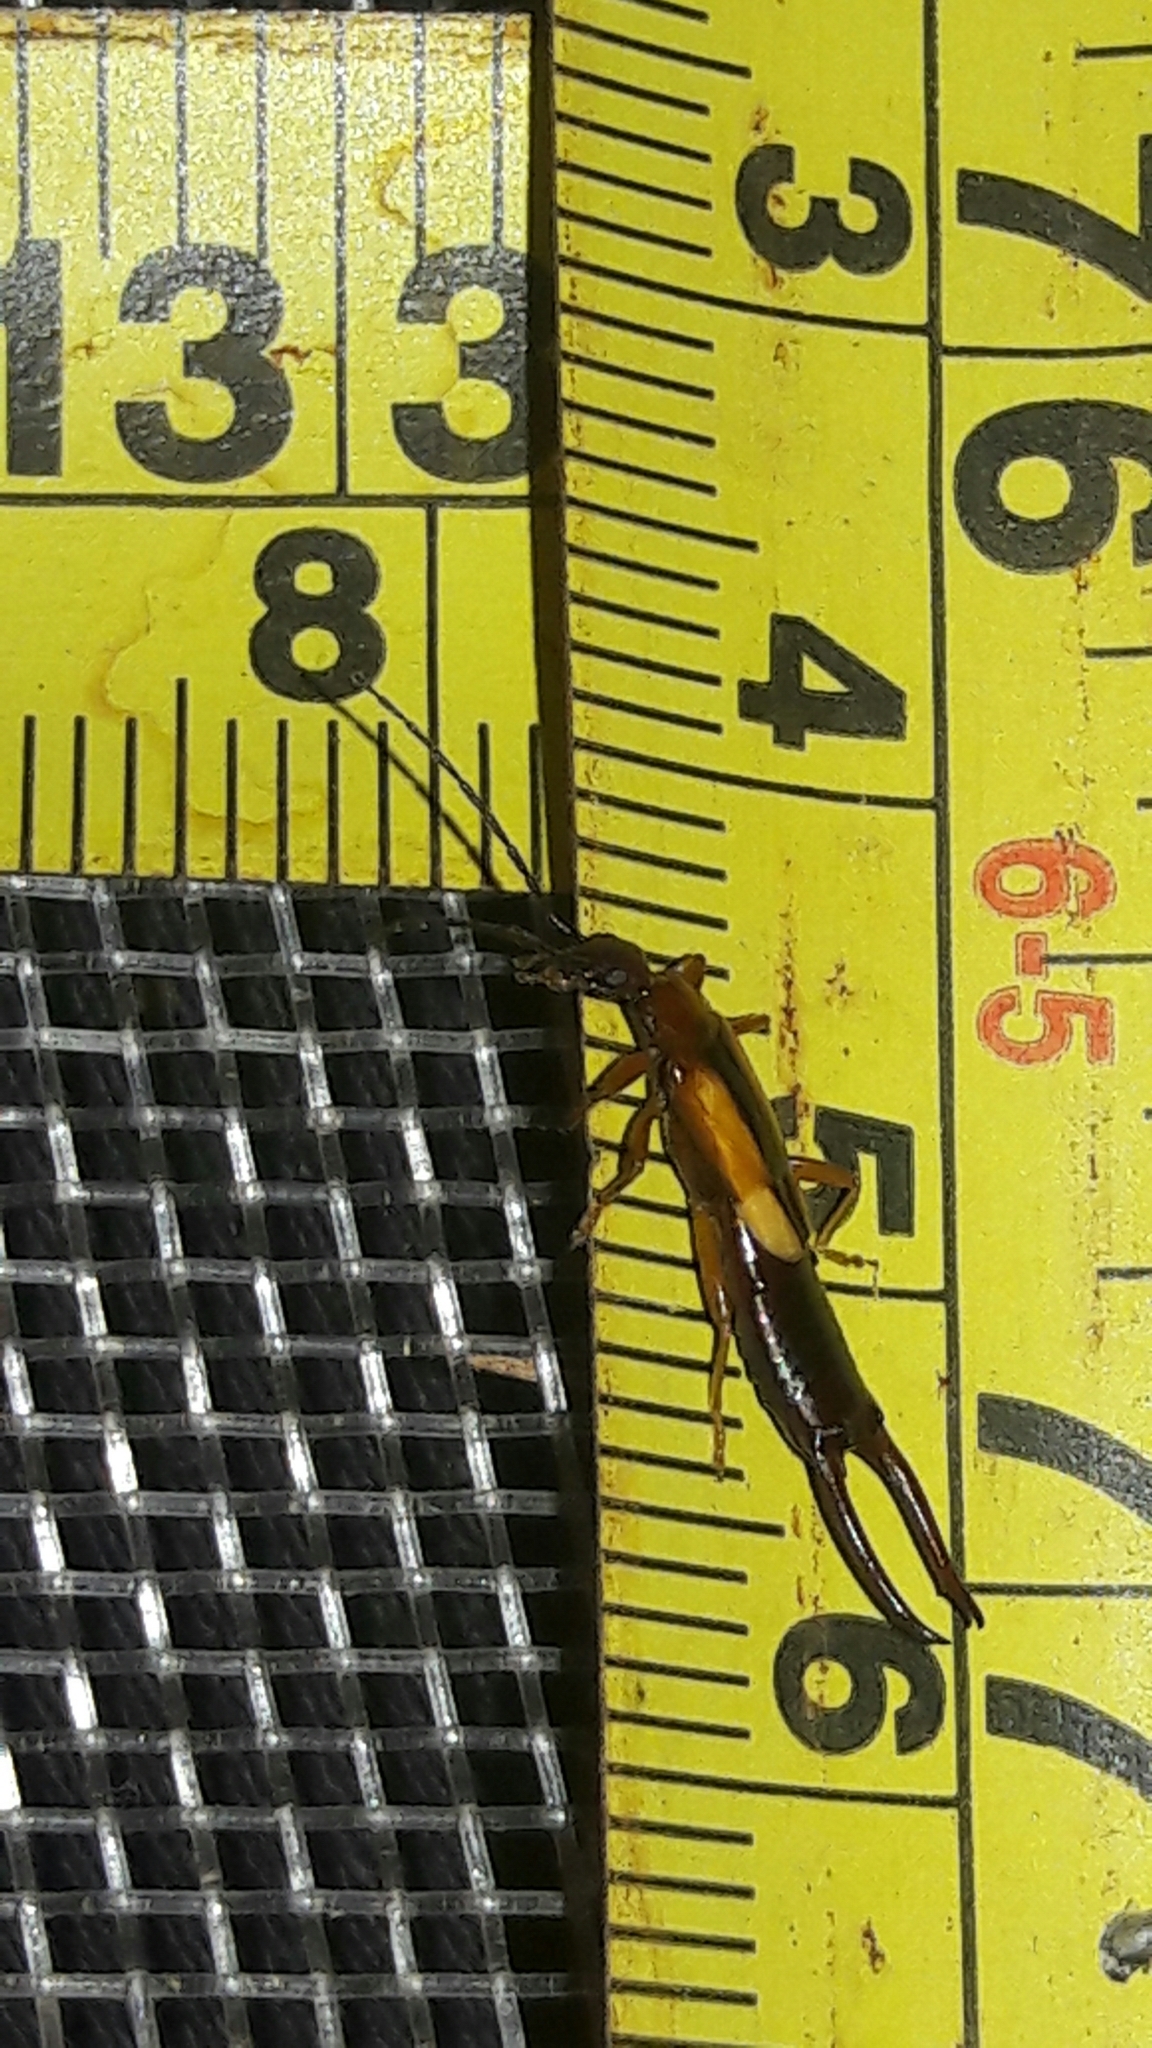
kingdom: Animalia
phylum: Arthropoda
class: Insecta
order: Dermaptera
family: Forficulidae
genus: Doru
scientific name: Doru lineare
